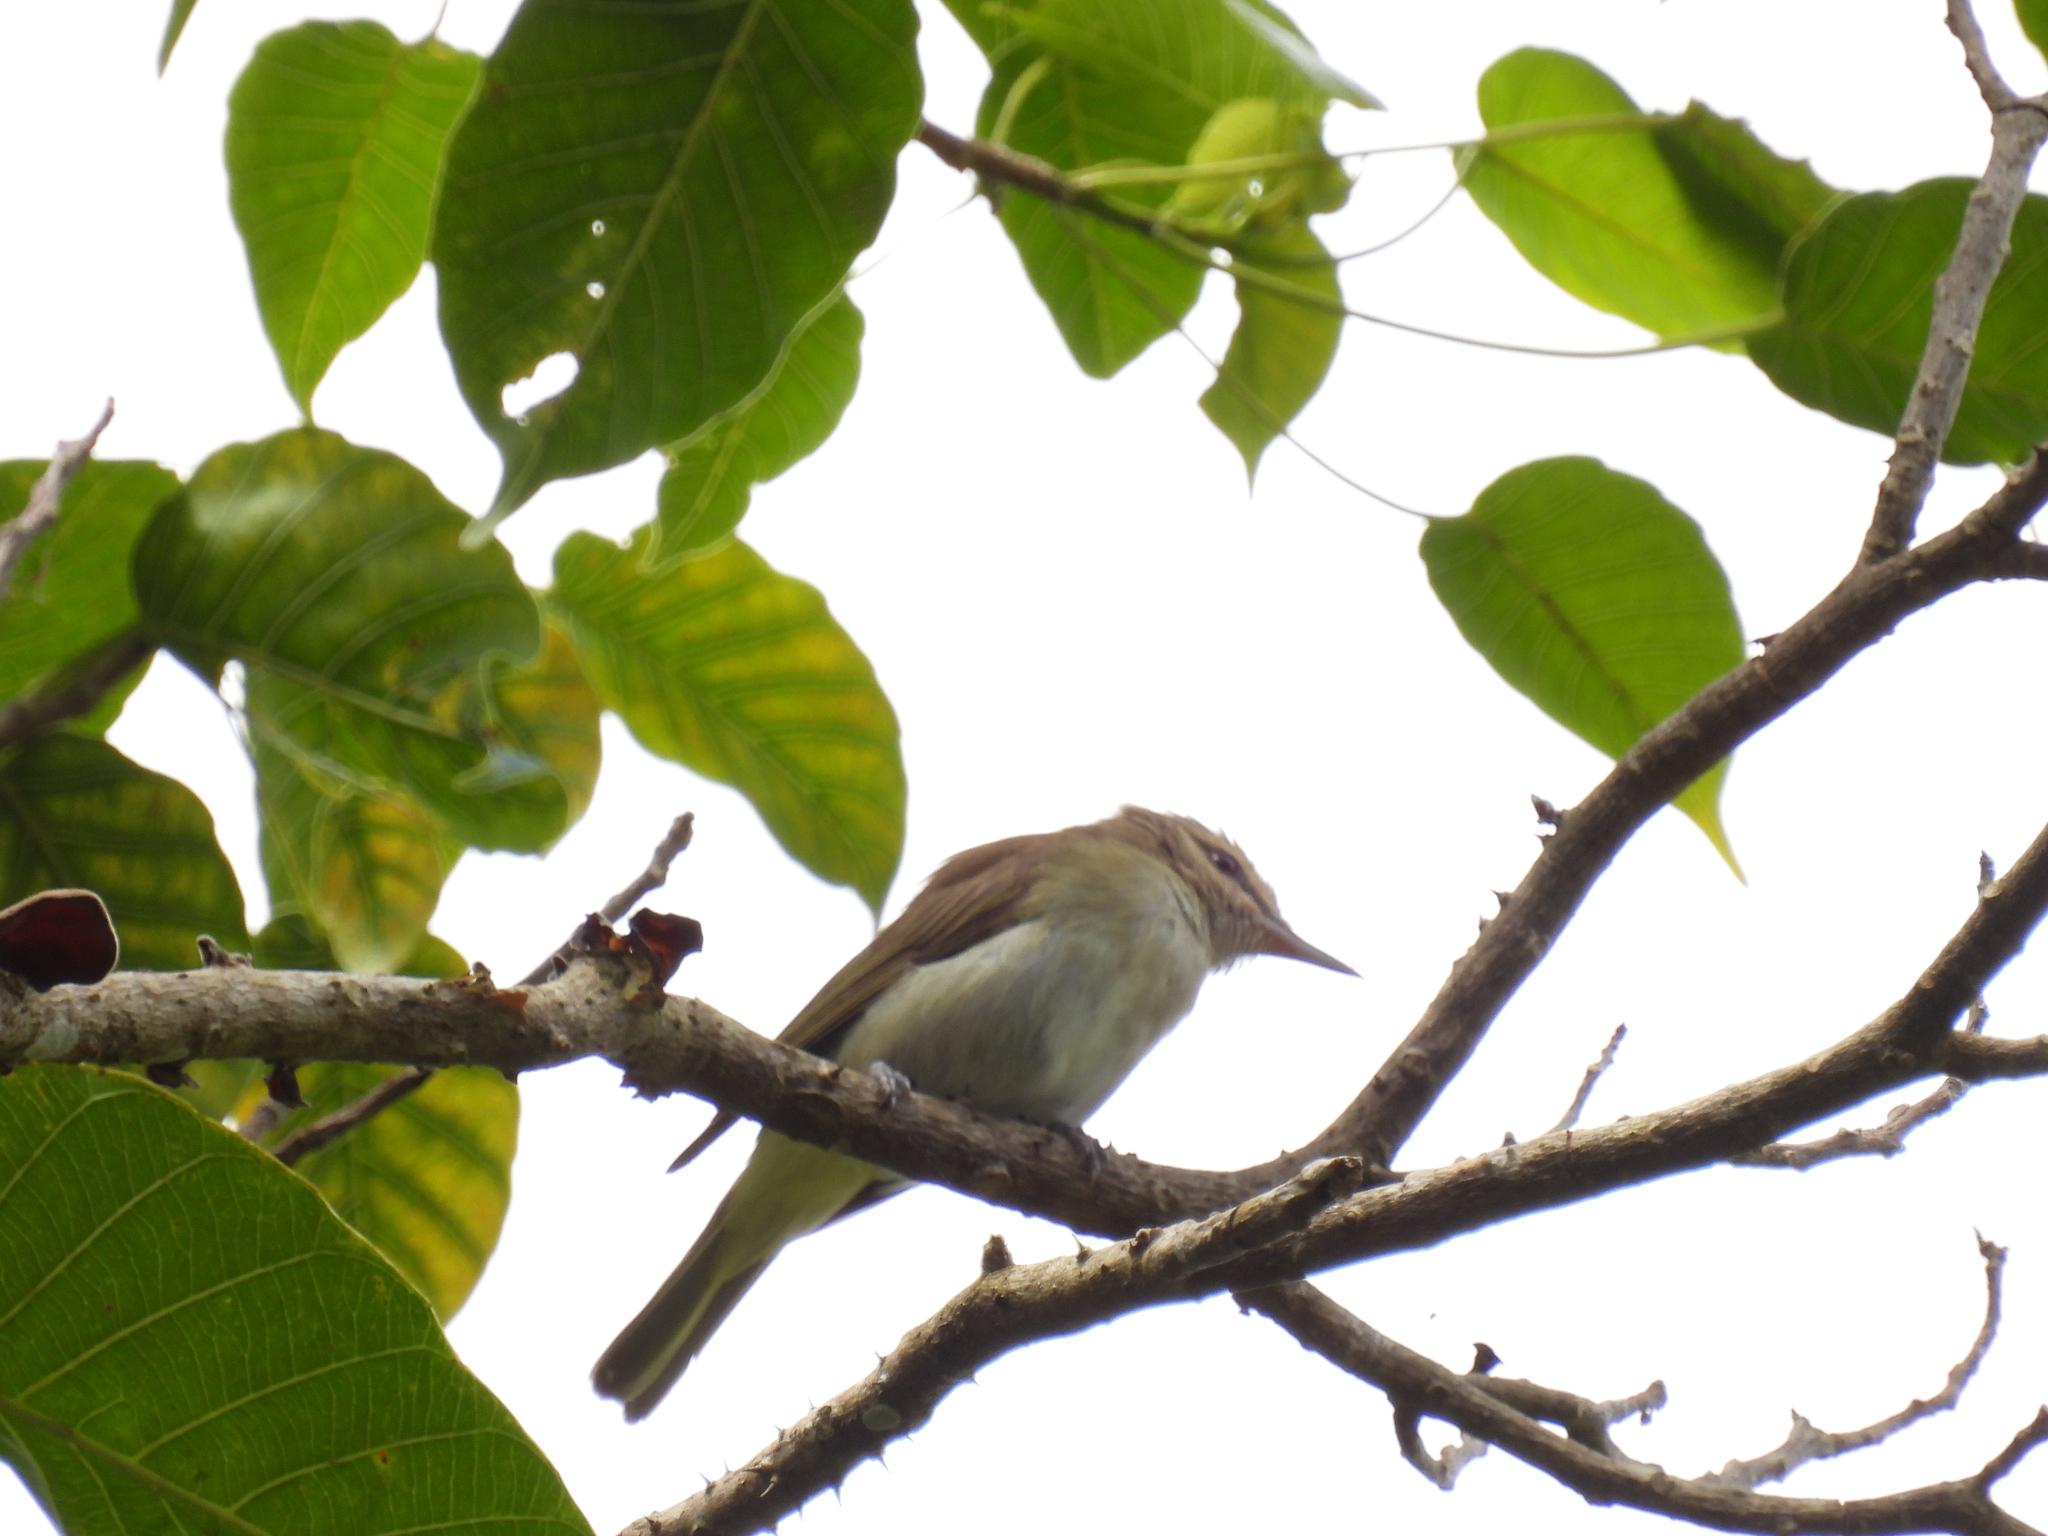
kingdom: Animalia
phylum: Chordata
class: Aves
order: Passeriformes
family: Vireonidae
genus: Vireo
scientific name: Vireo altiloquus
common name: Black-whiskered vireo
